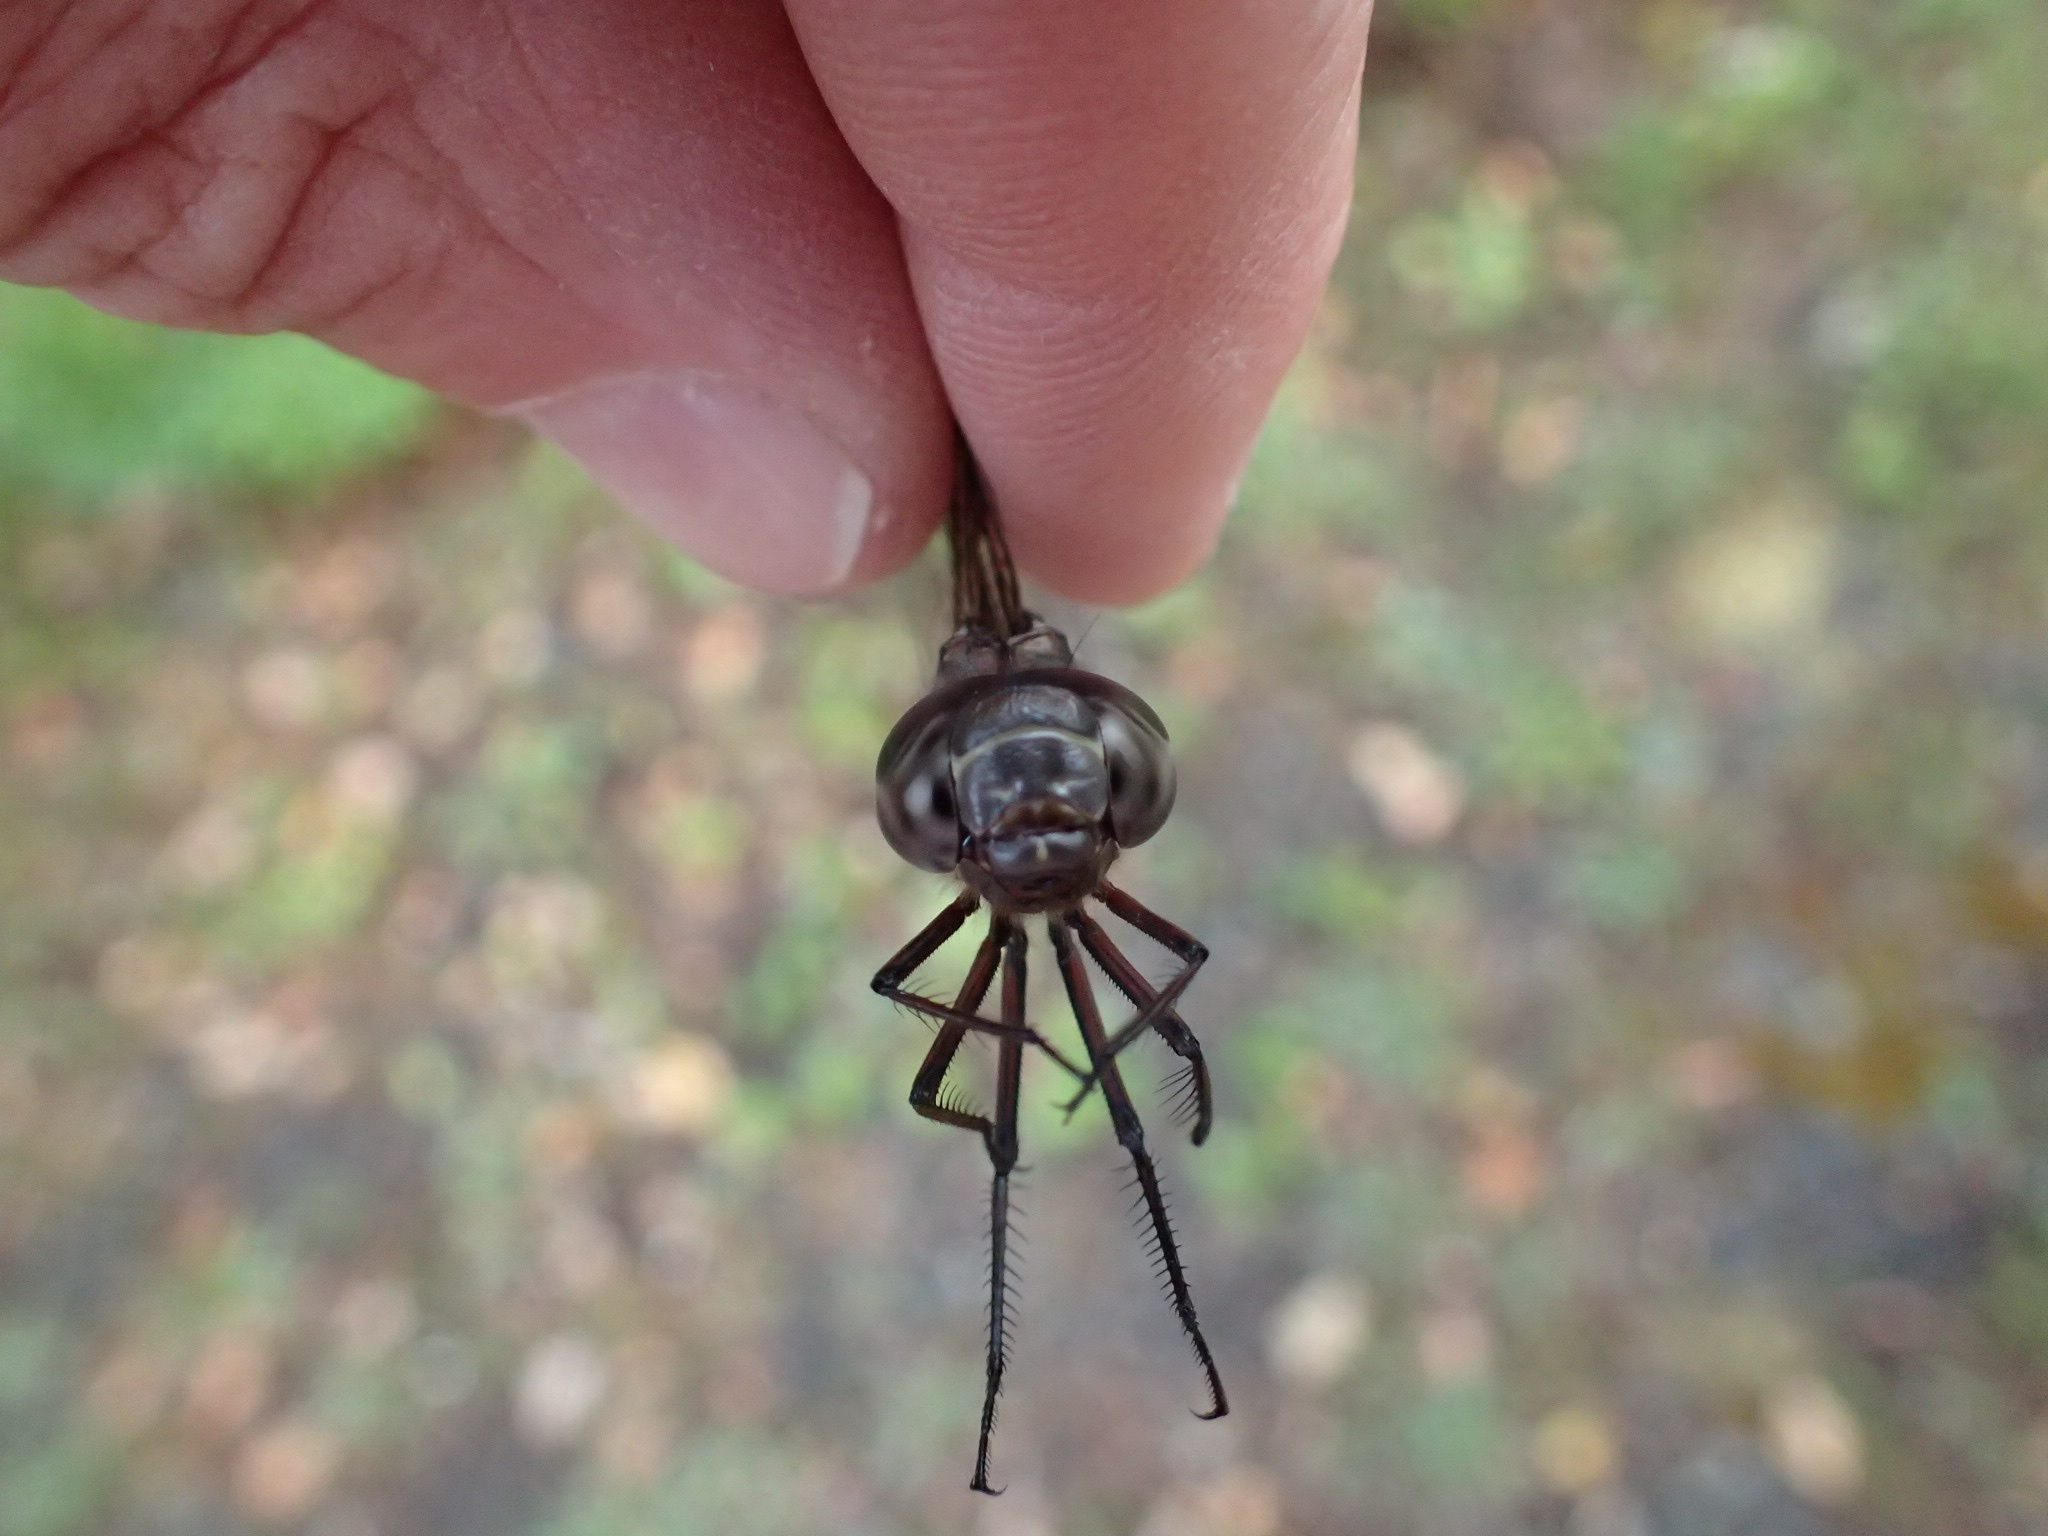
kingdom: Animalia
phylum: Arthropoda
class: Insecta
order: Odonata
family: Aeshnidae
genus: Aeshna
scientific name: Aeshna canadensis
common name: Canada darner
